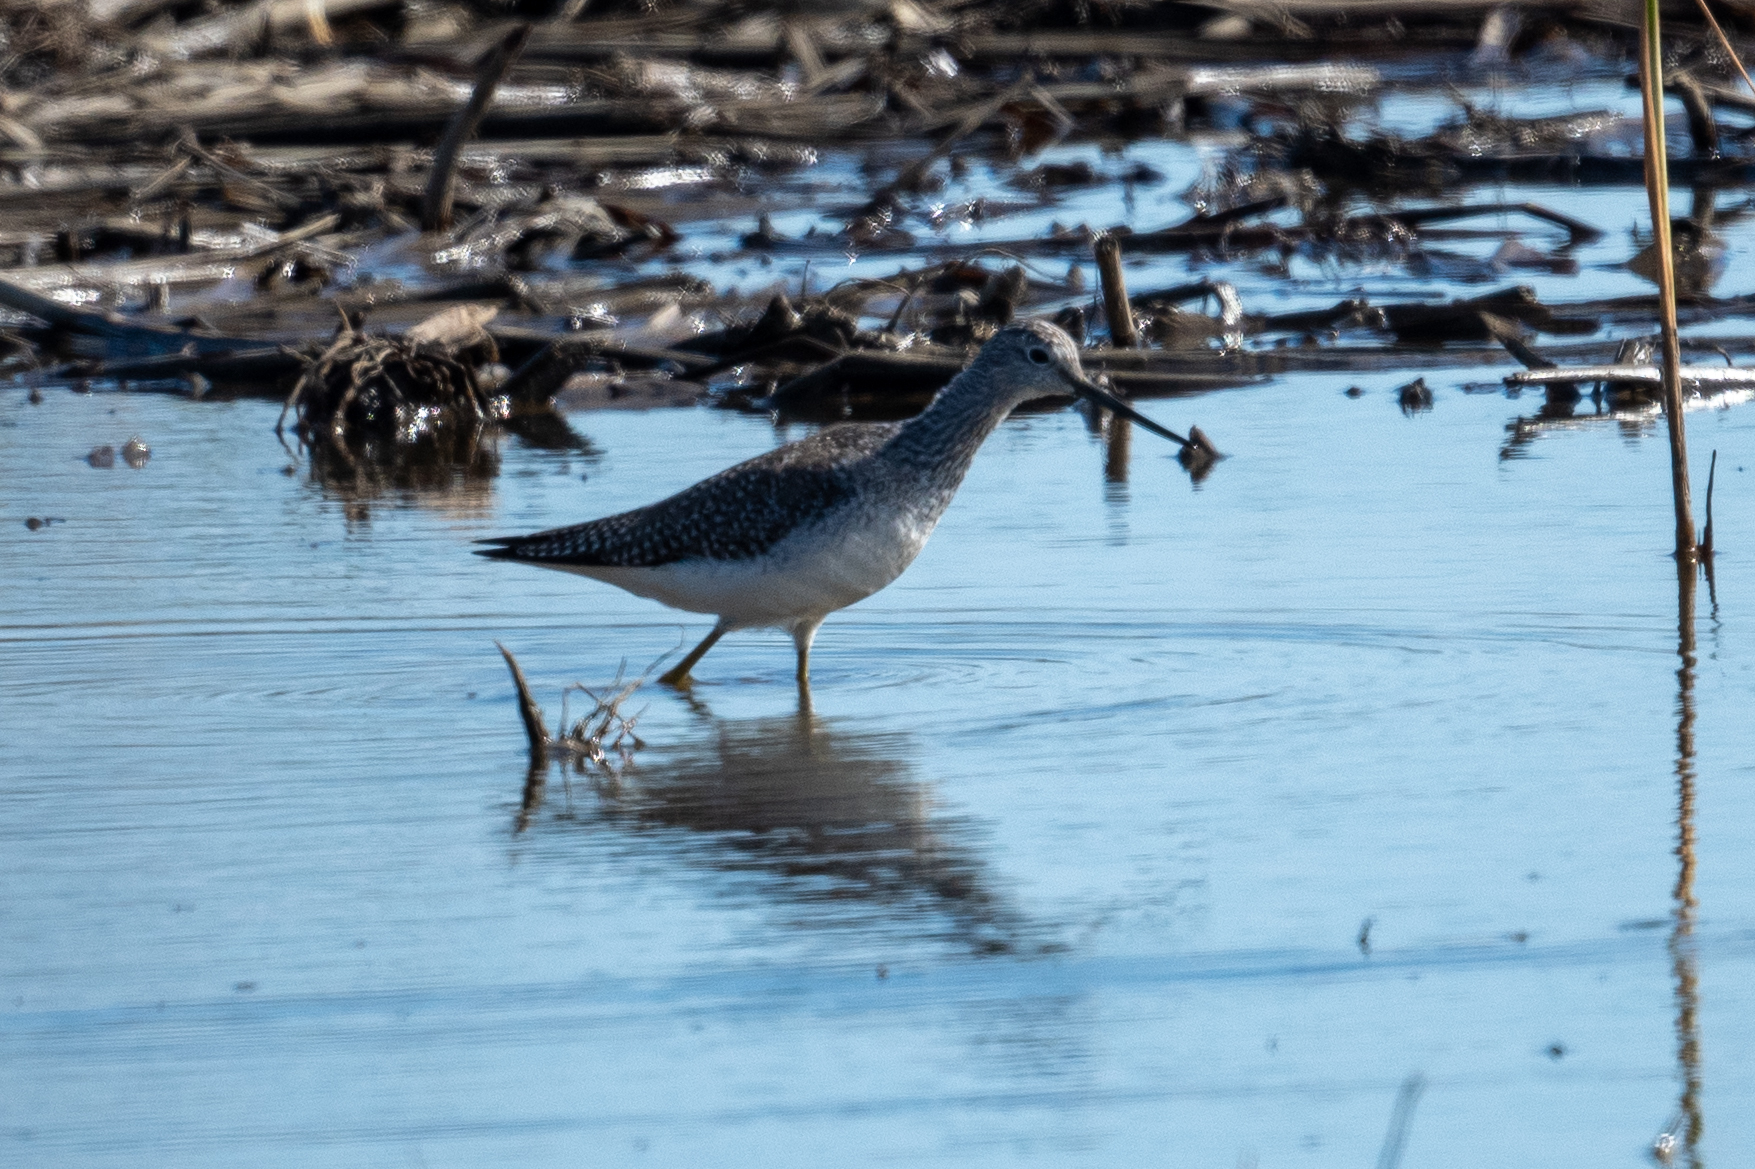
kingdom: Animalia
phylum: Chordata
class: Aves
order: Charadriiformes
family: Scolopacidae
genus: Tringa
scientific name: Tringa melanoleuca
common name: Greater yellowlegs
